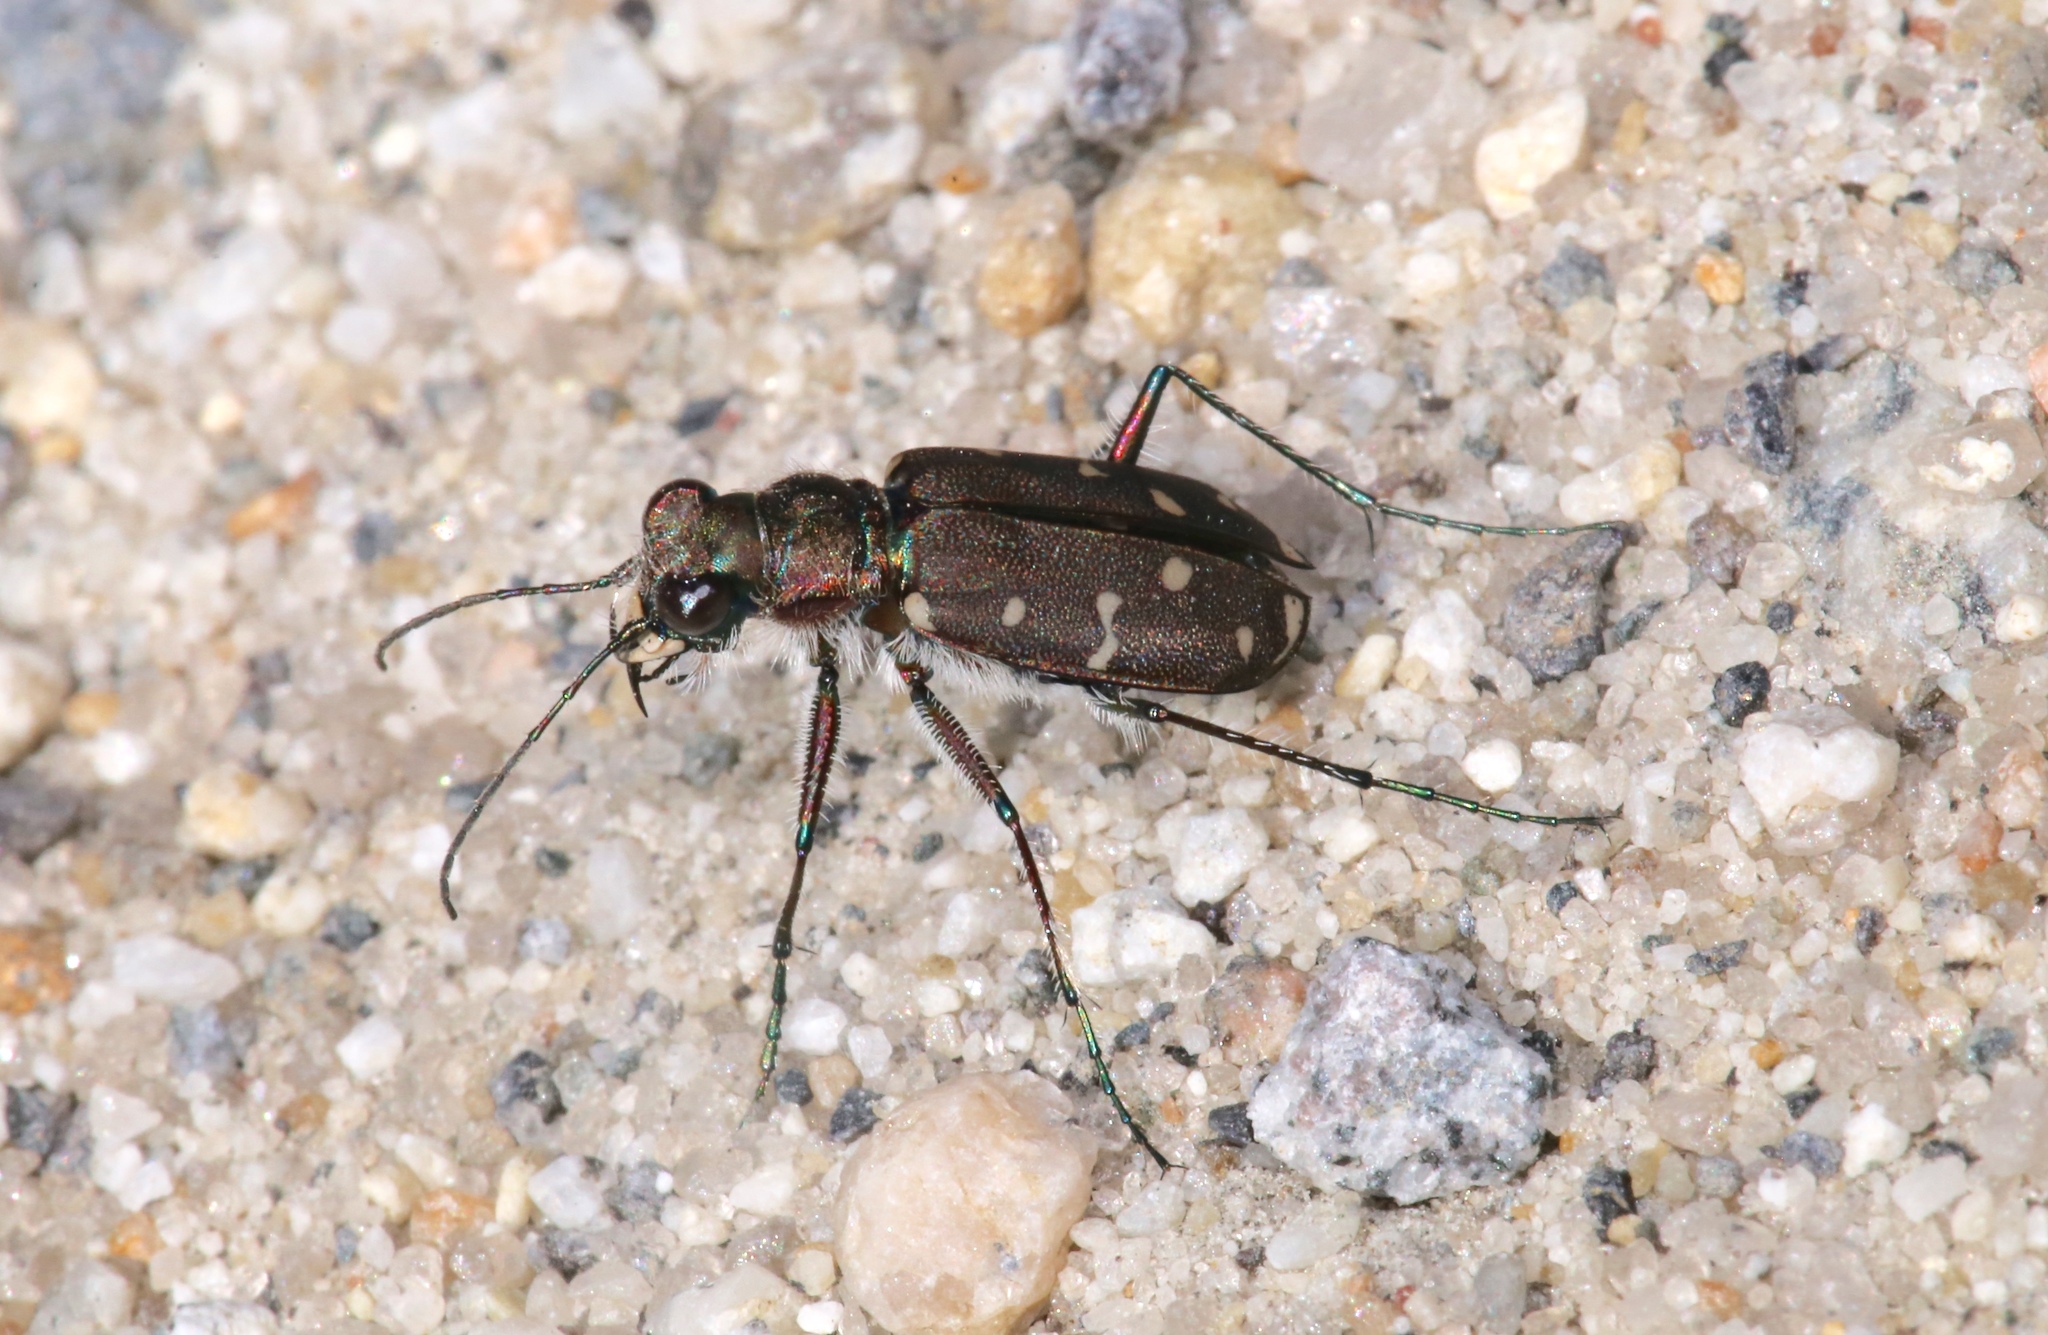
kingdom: Animalia
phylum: Arthropoda
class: Insecta
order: Coleoptera
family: Carabidae
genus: Cicindela
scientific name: Cicindela duodecimguttata
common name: Twelve-spotted tiger beetle
